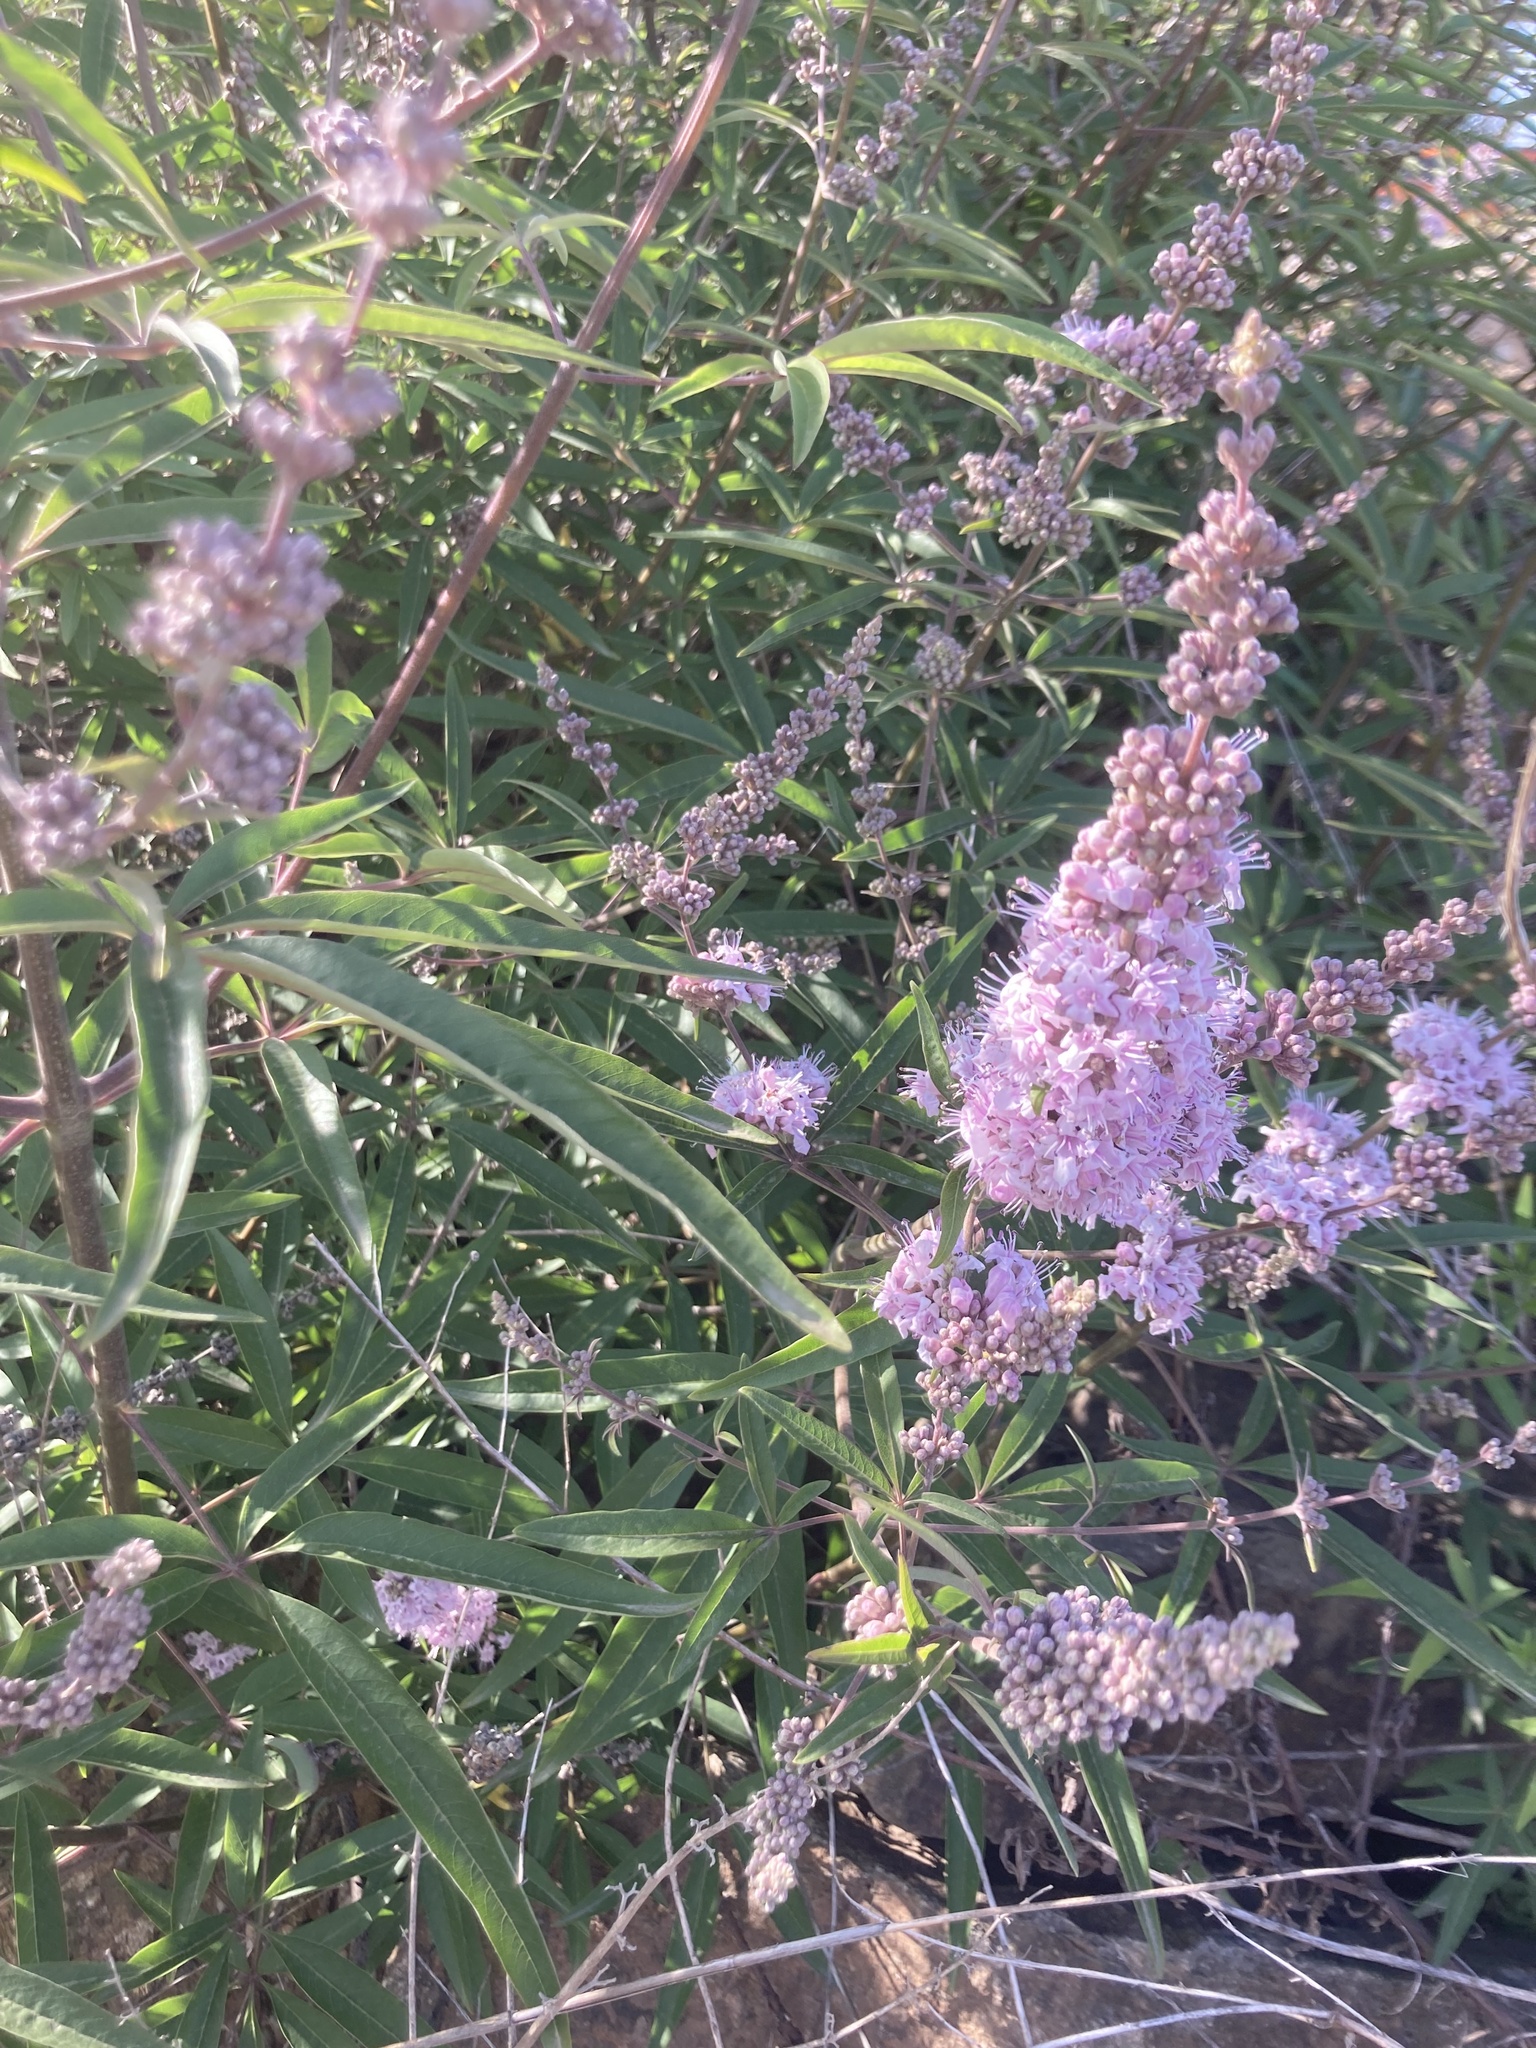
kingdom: Plantae
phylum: Tracheophyta
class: Magnoliopsida
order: Lamiales
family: Lamiaceae
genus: Vitex
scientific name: Vitex agnus-castus
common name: Chasteberry
